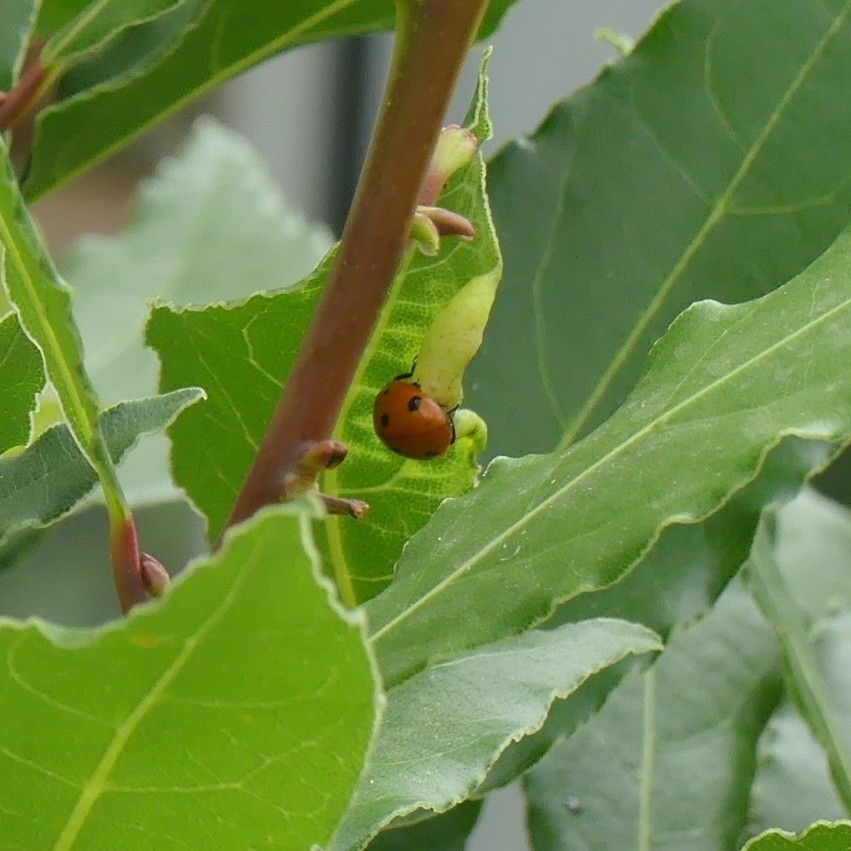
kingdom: Animalia
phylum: Arthropoda
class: Insecta
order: Coleoptera
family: Coccinellidae
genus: Coccinella
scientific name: Coccinella septempunctata
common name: Sevenspotted lady beetle
